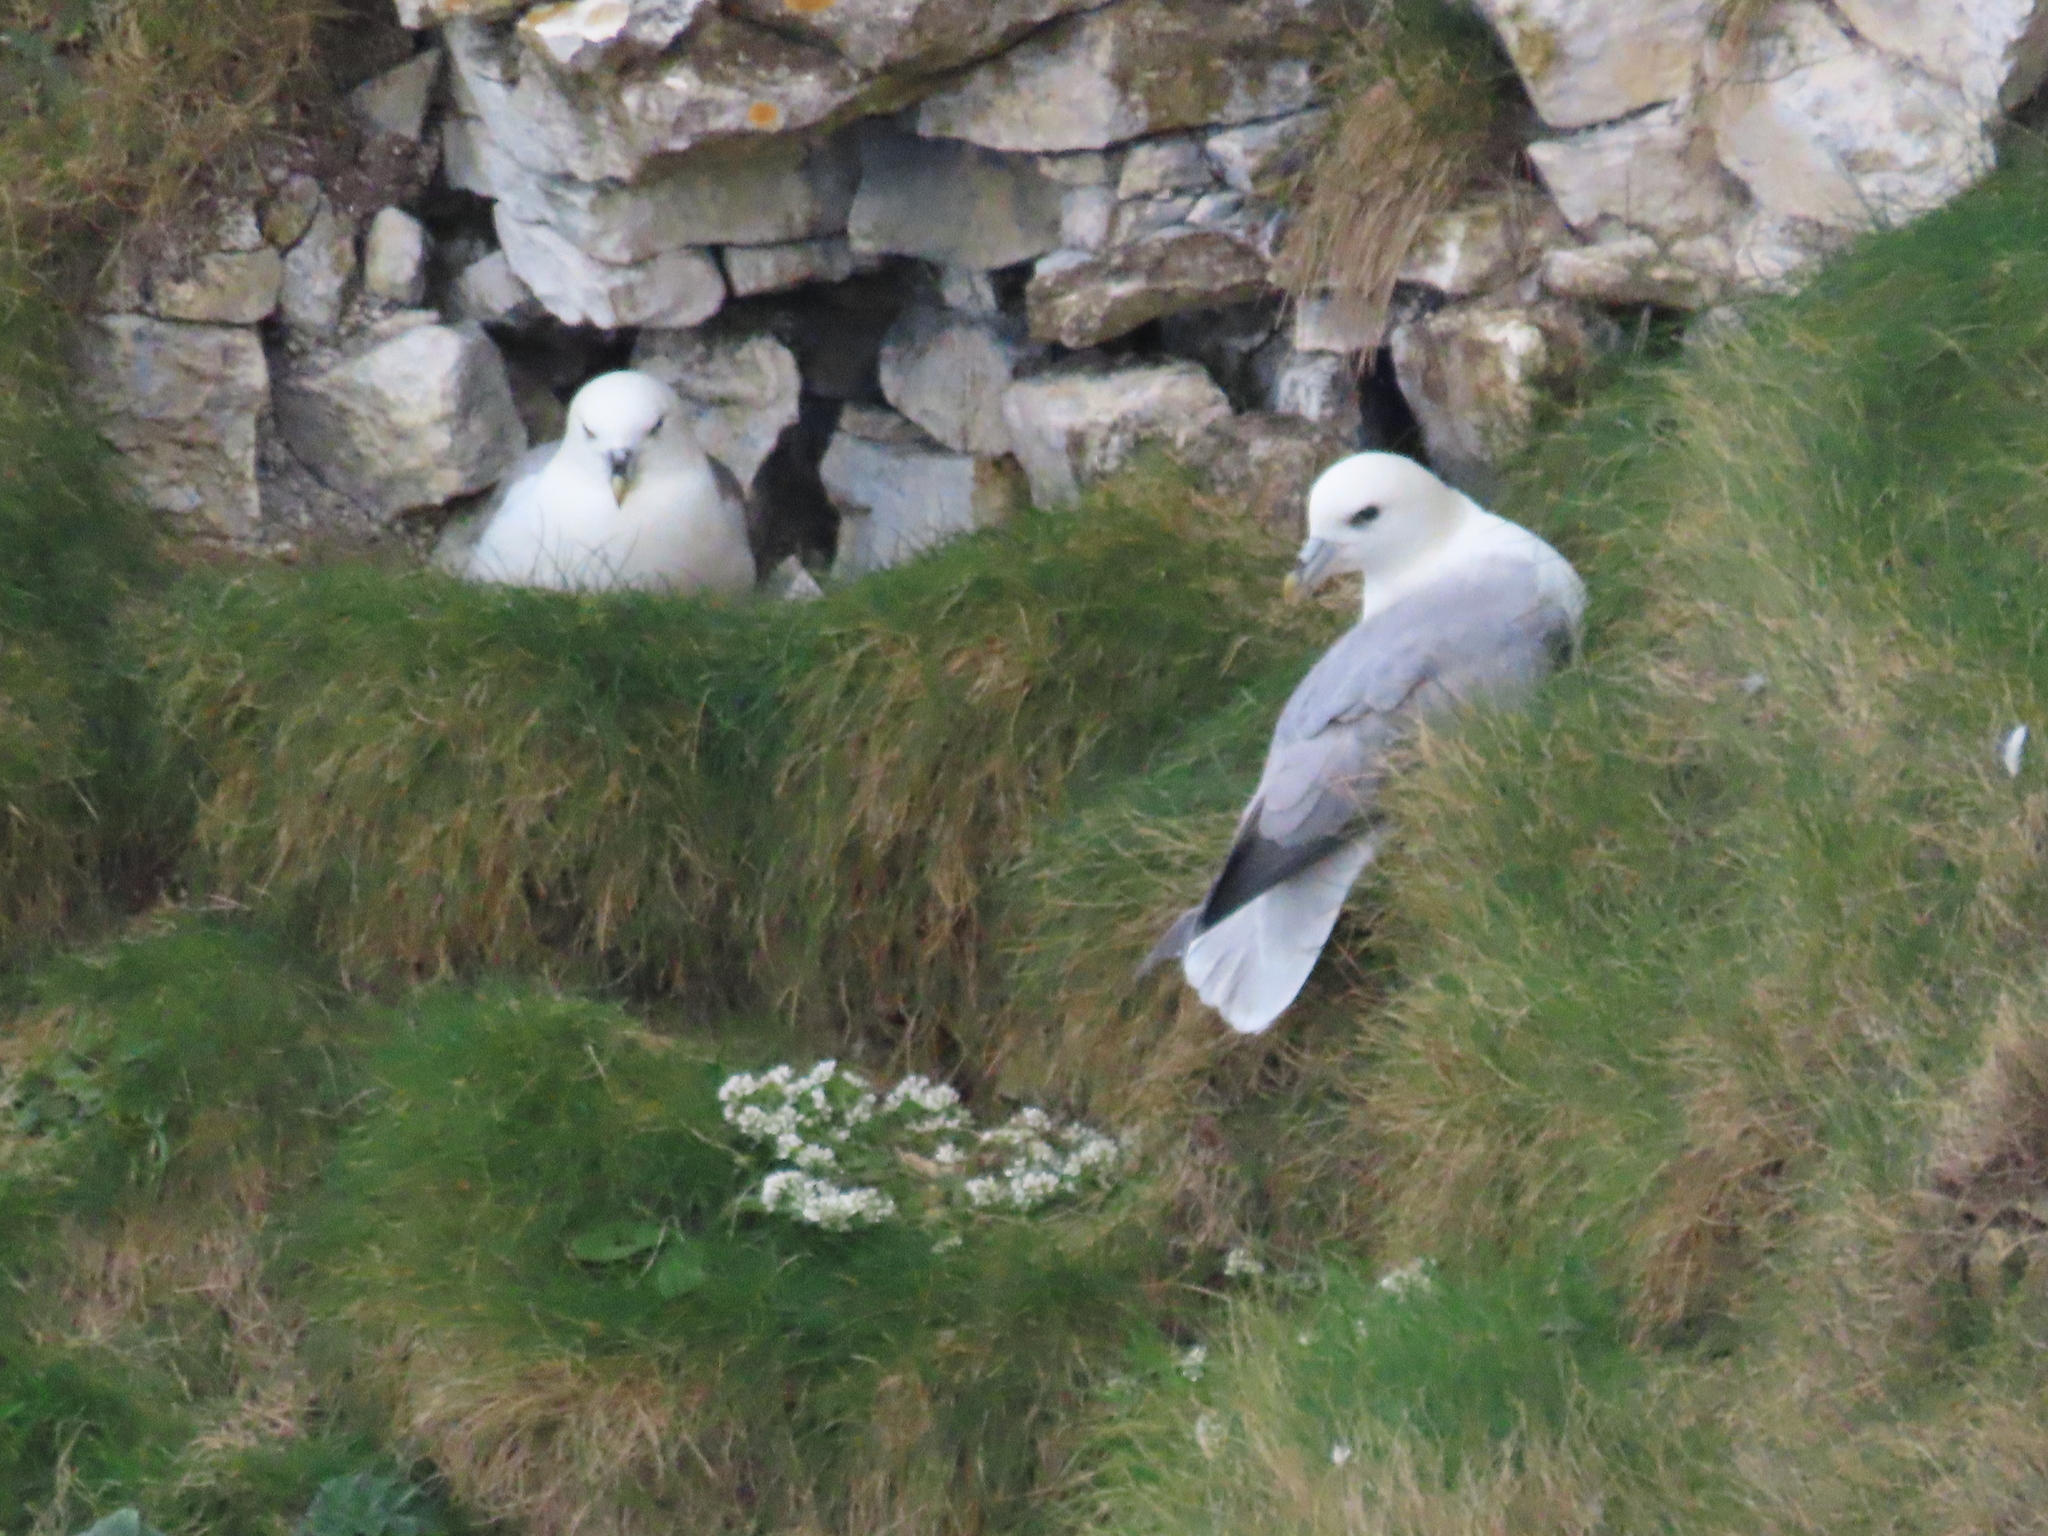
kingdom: Animalia
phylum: Chordata
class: Aves
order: Procellariiformes
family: Procellariidae
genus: Fulmarus
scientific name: Fulmarus glacialis
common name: Northern fulmar
